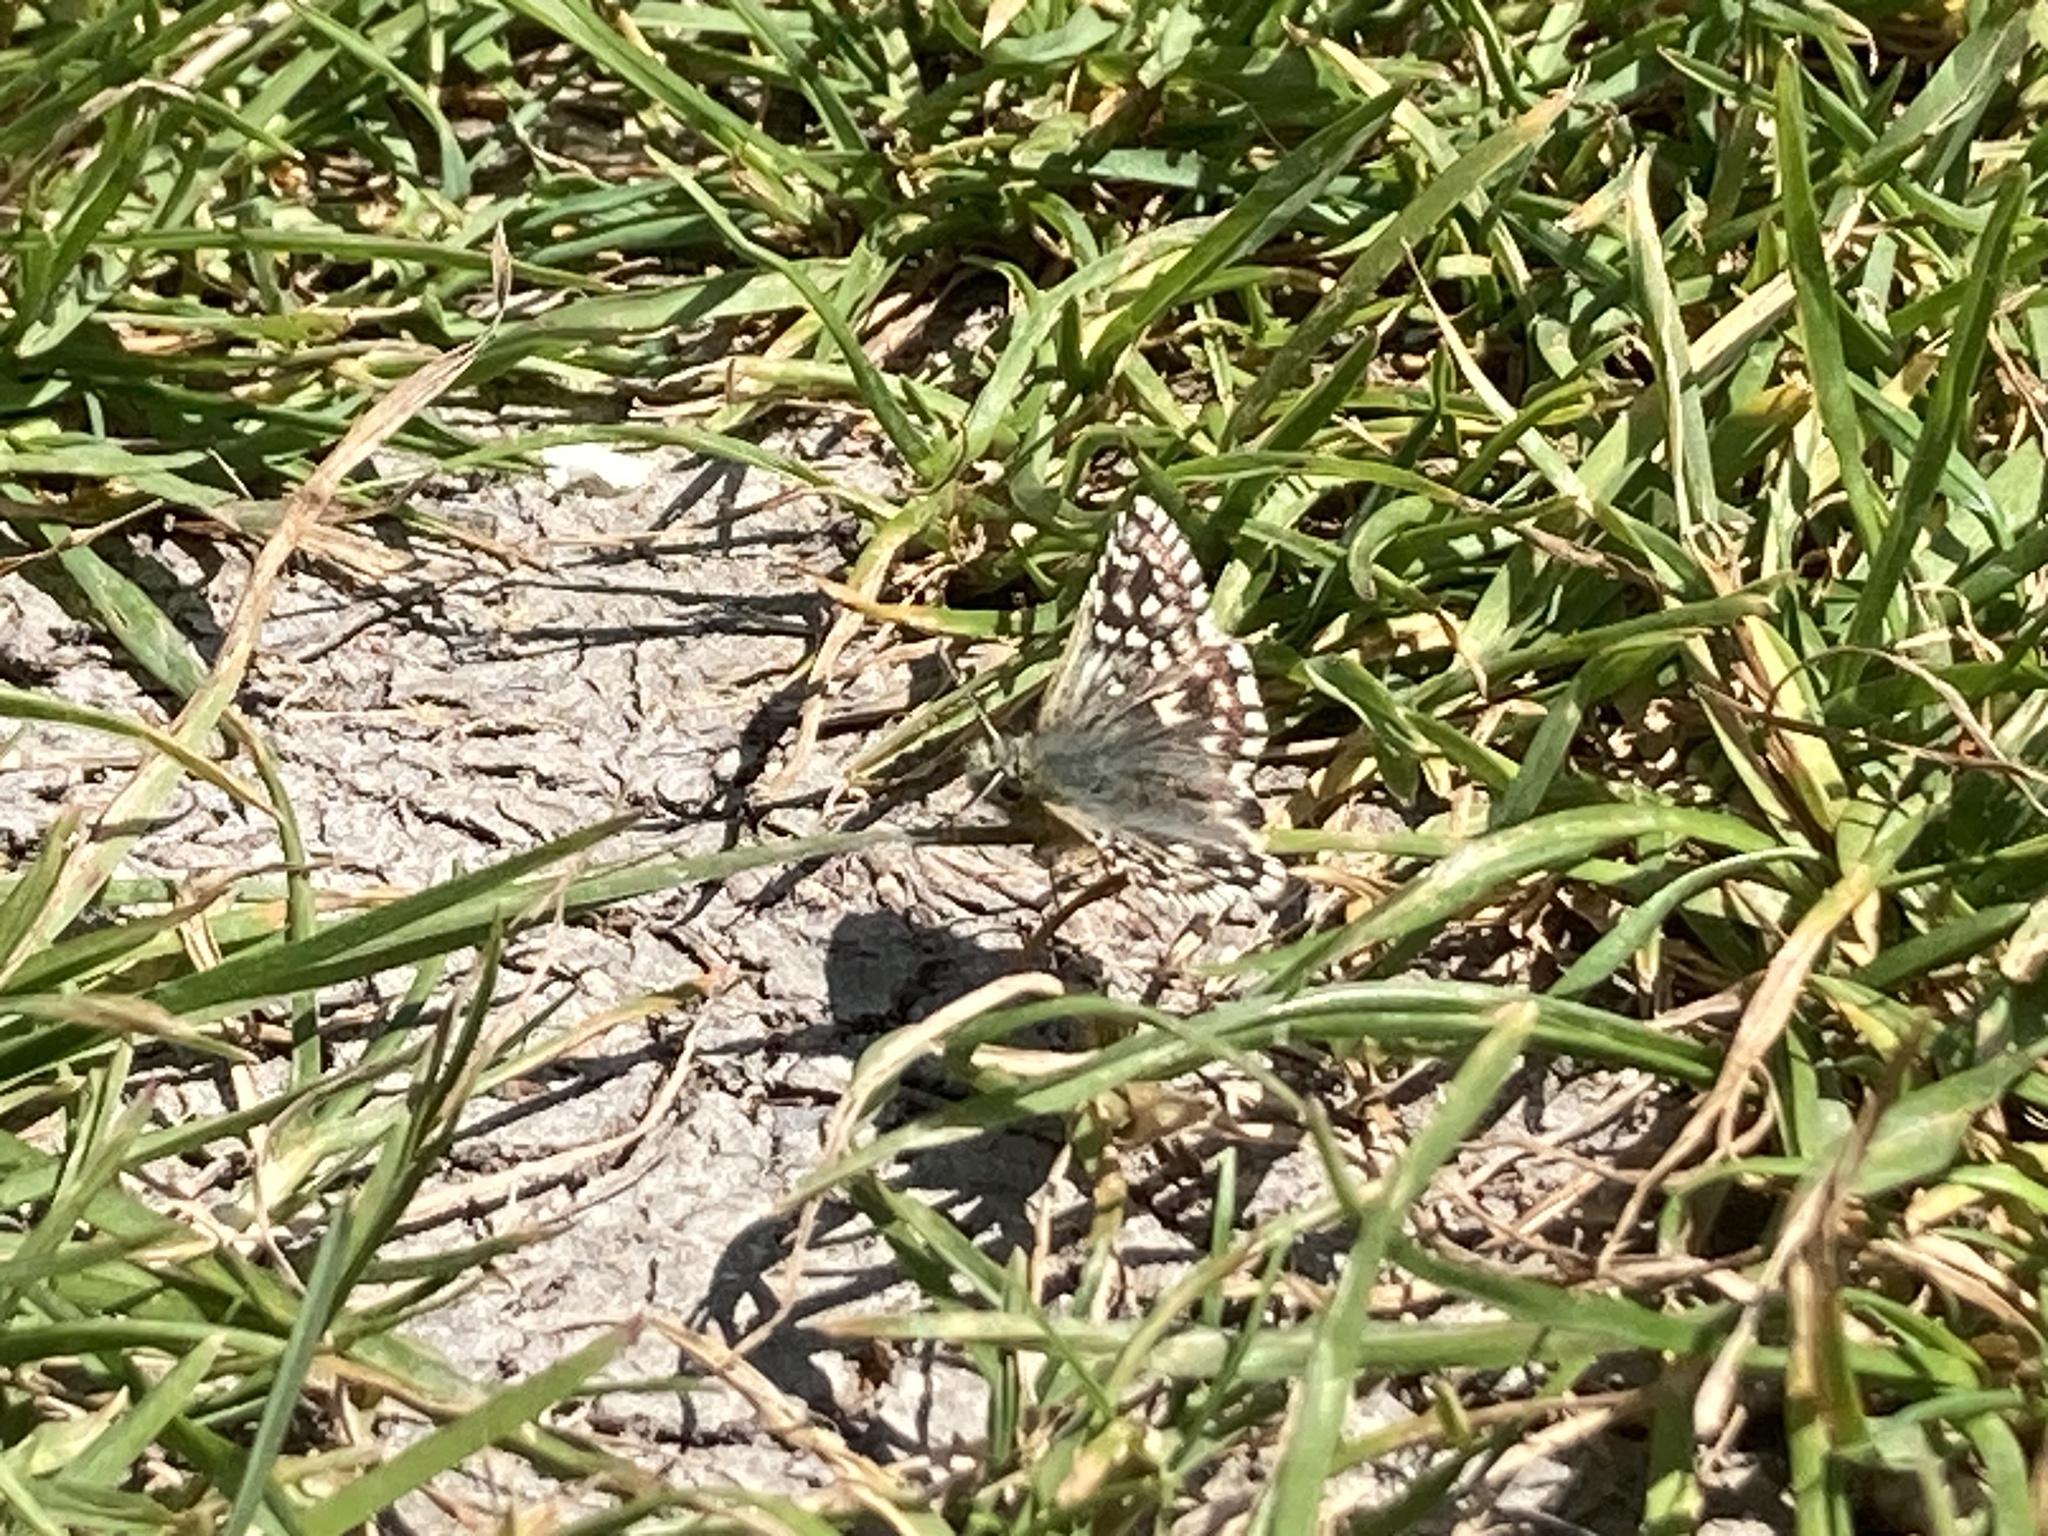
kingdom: Animalia
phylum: Arthropoda
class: Insecta
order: Lepidoptera
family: Hesperiidae
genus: Pyrgus
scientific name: Pyrgus malvae
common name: Grizzled skipper
